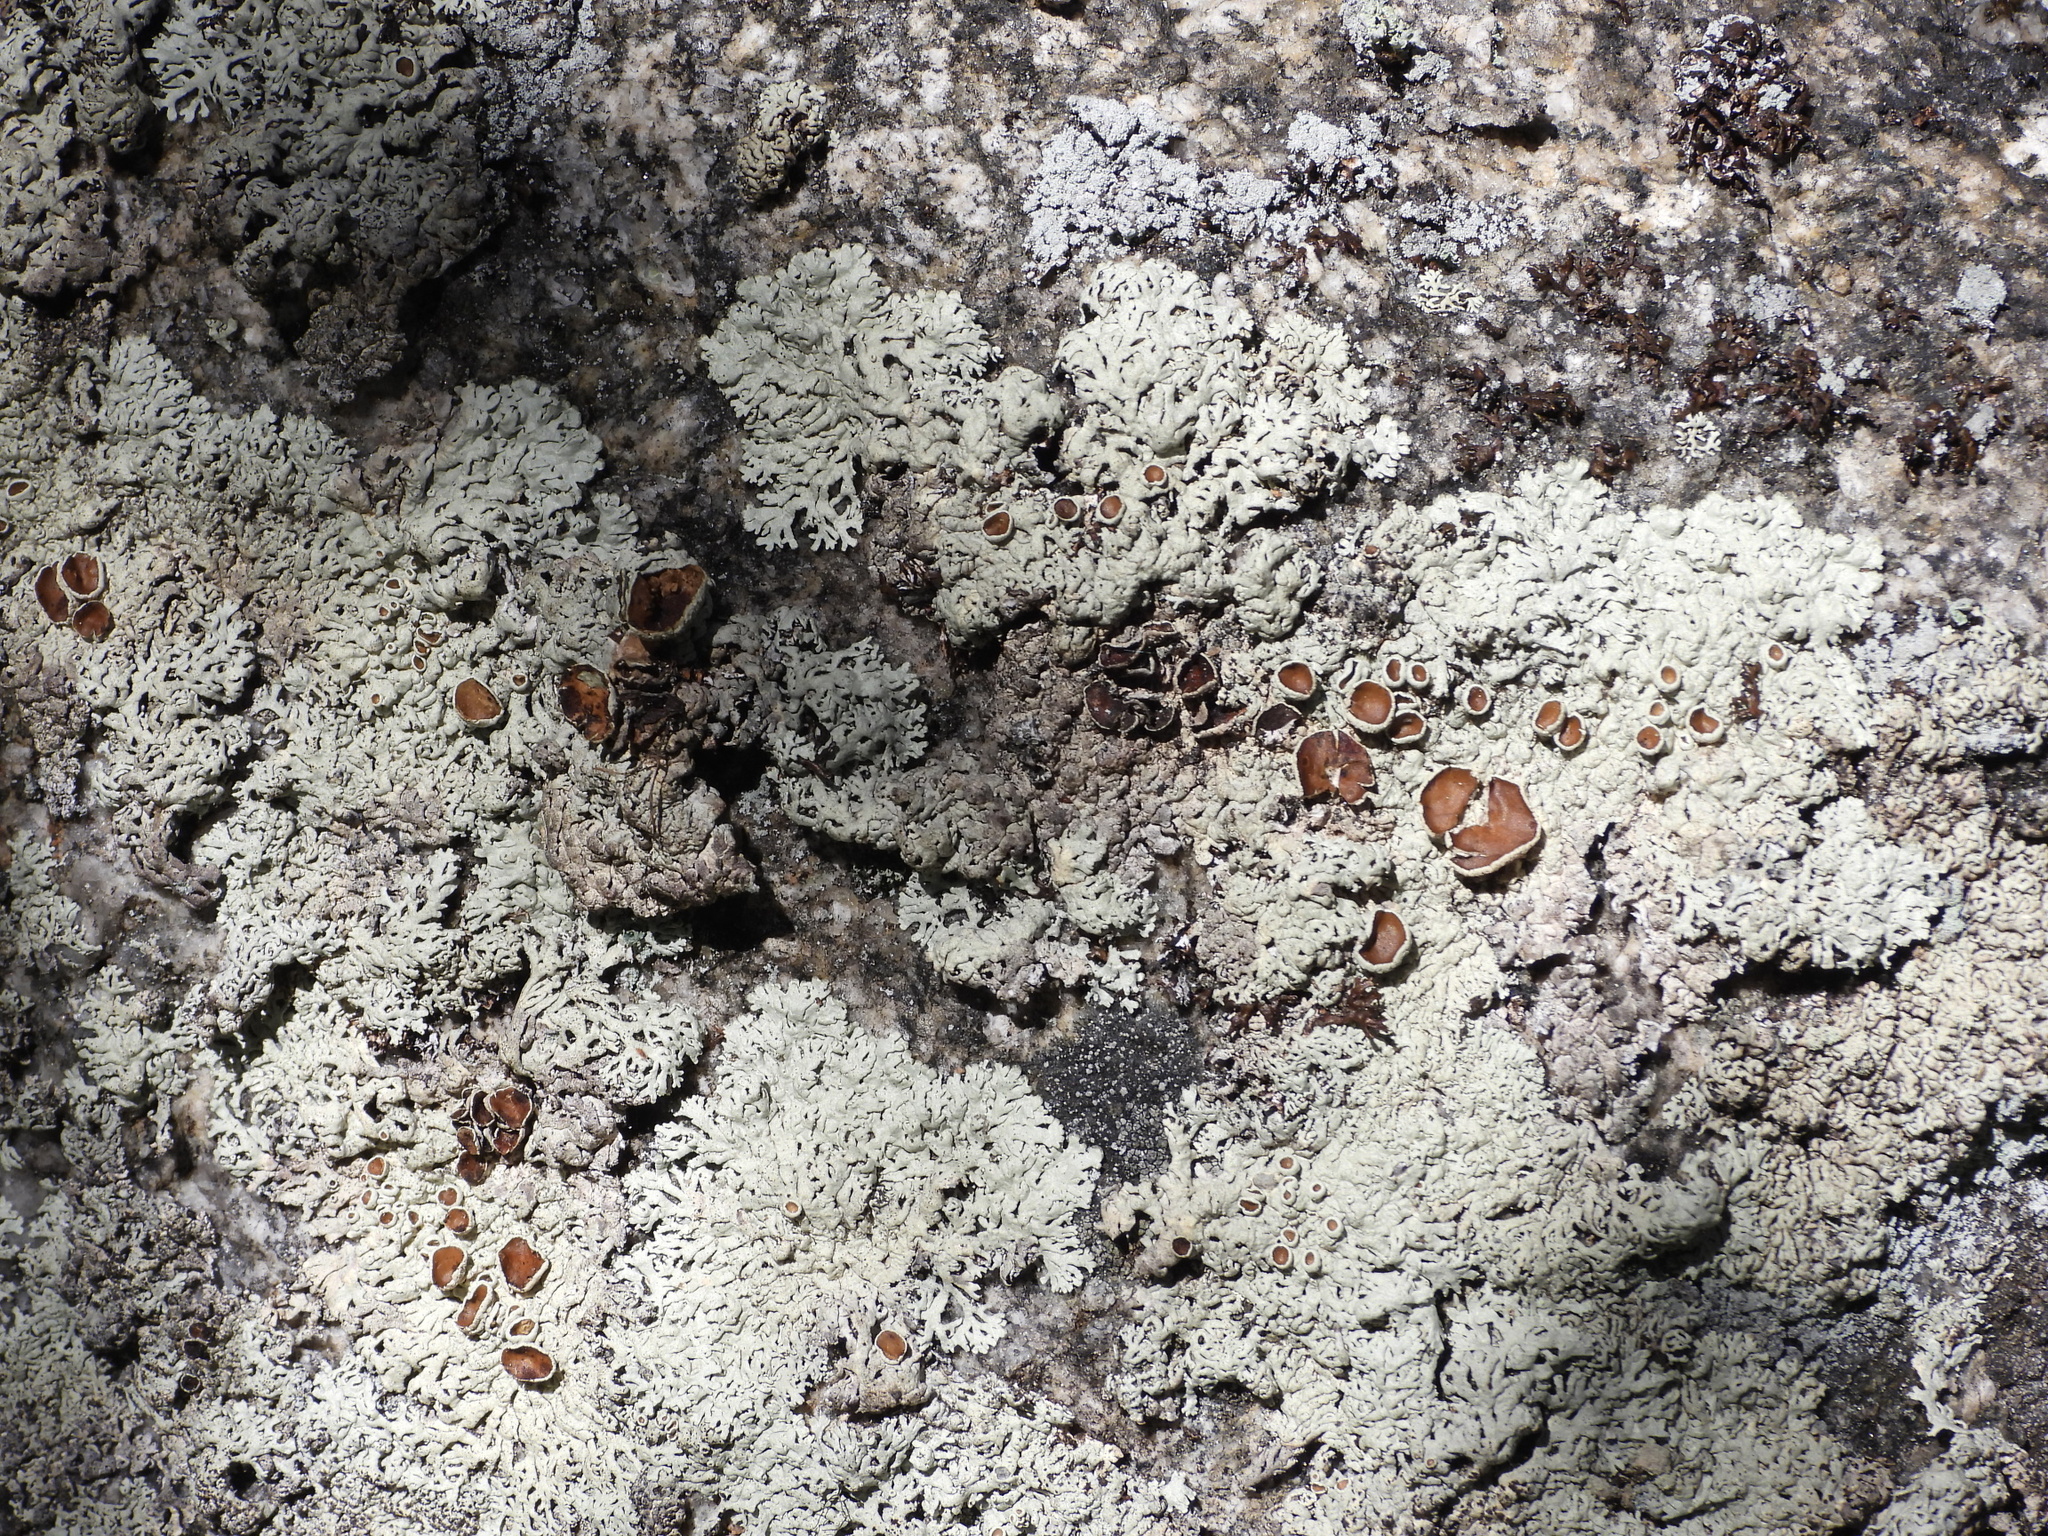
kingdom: Fungi
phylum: Ascomycota
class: Lecanoromycetes
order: Lecanorales
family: Parmeliaceae
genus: Arctoparmelia
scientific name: Arctoparmelia centrifuga
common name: Concentric ring lichen
